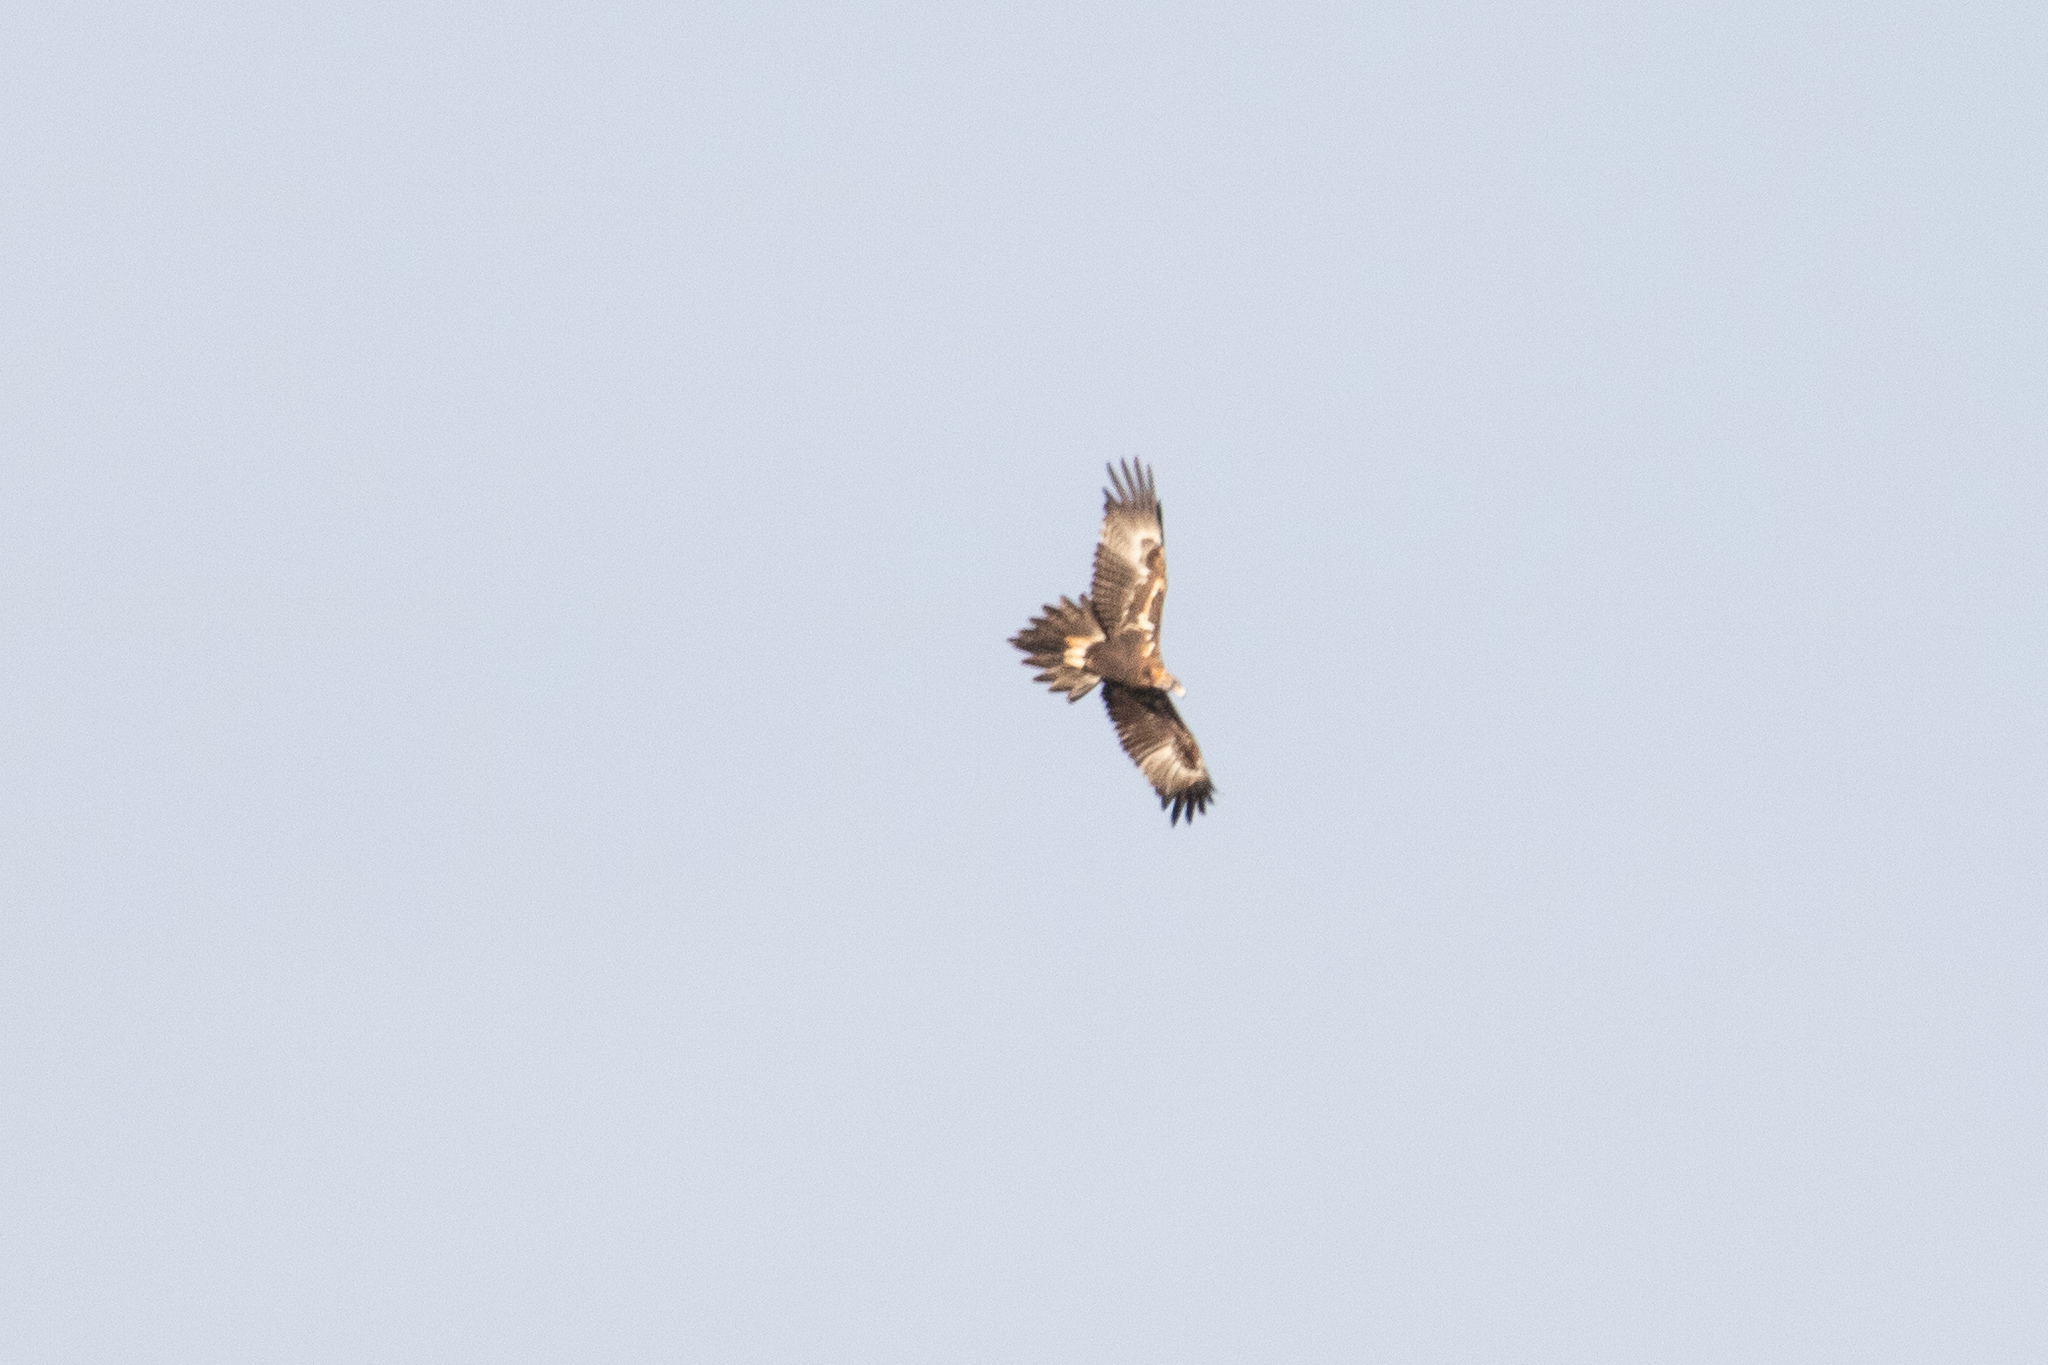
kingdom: Animalia
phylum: Chordata
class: Aves
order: Accipitriformes
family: Accipitridae
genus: Aquila
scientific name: Aquila audax
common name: Wedge-tailed eagle
